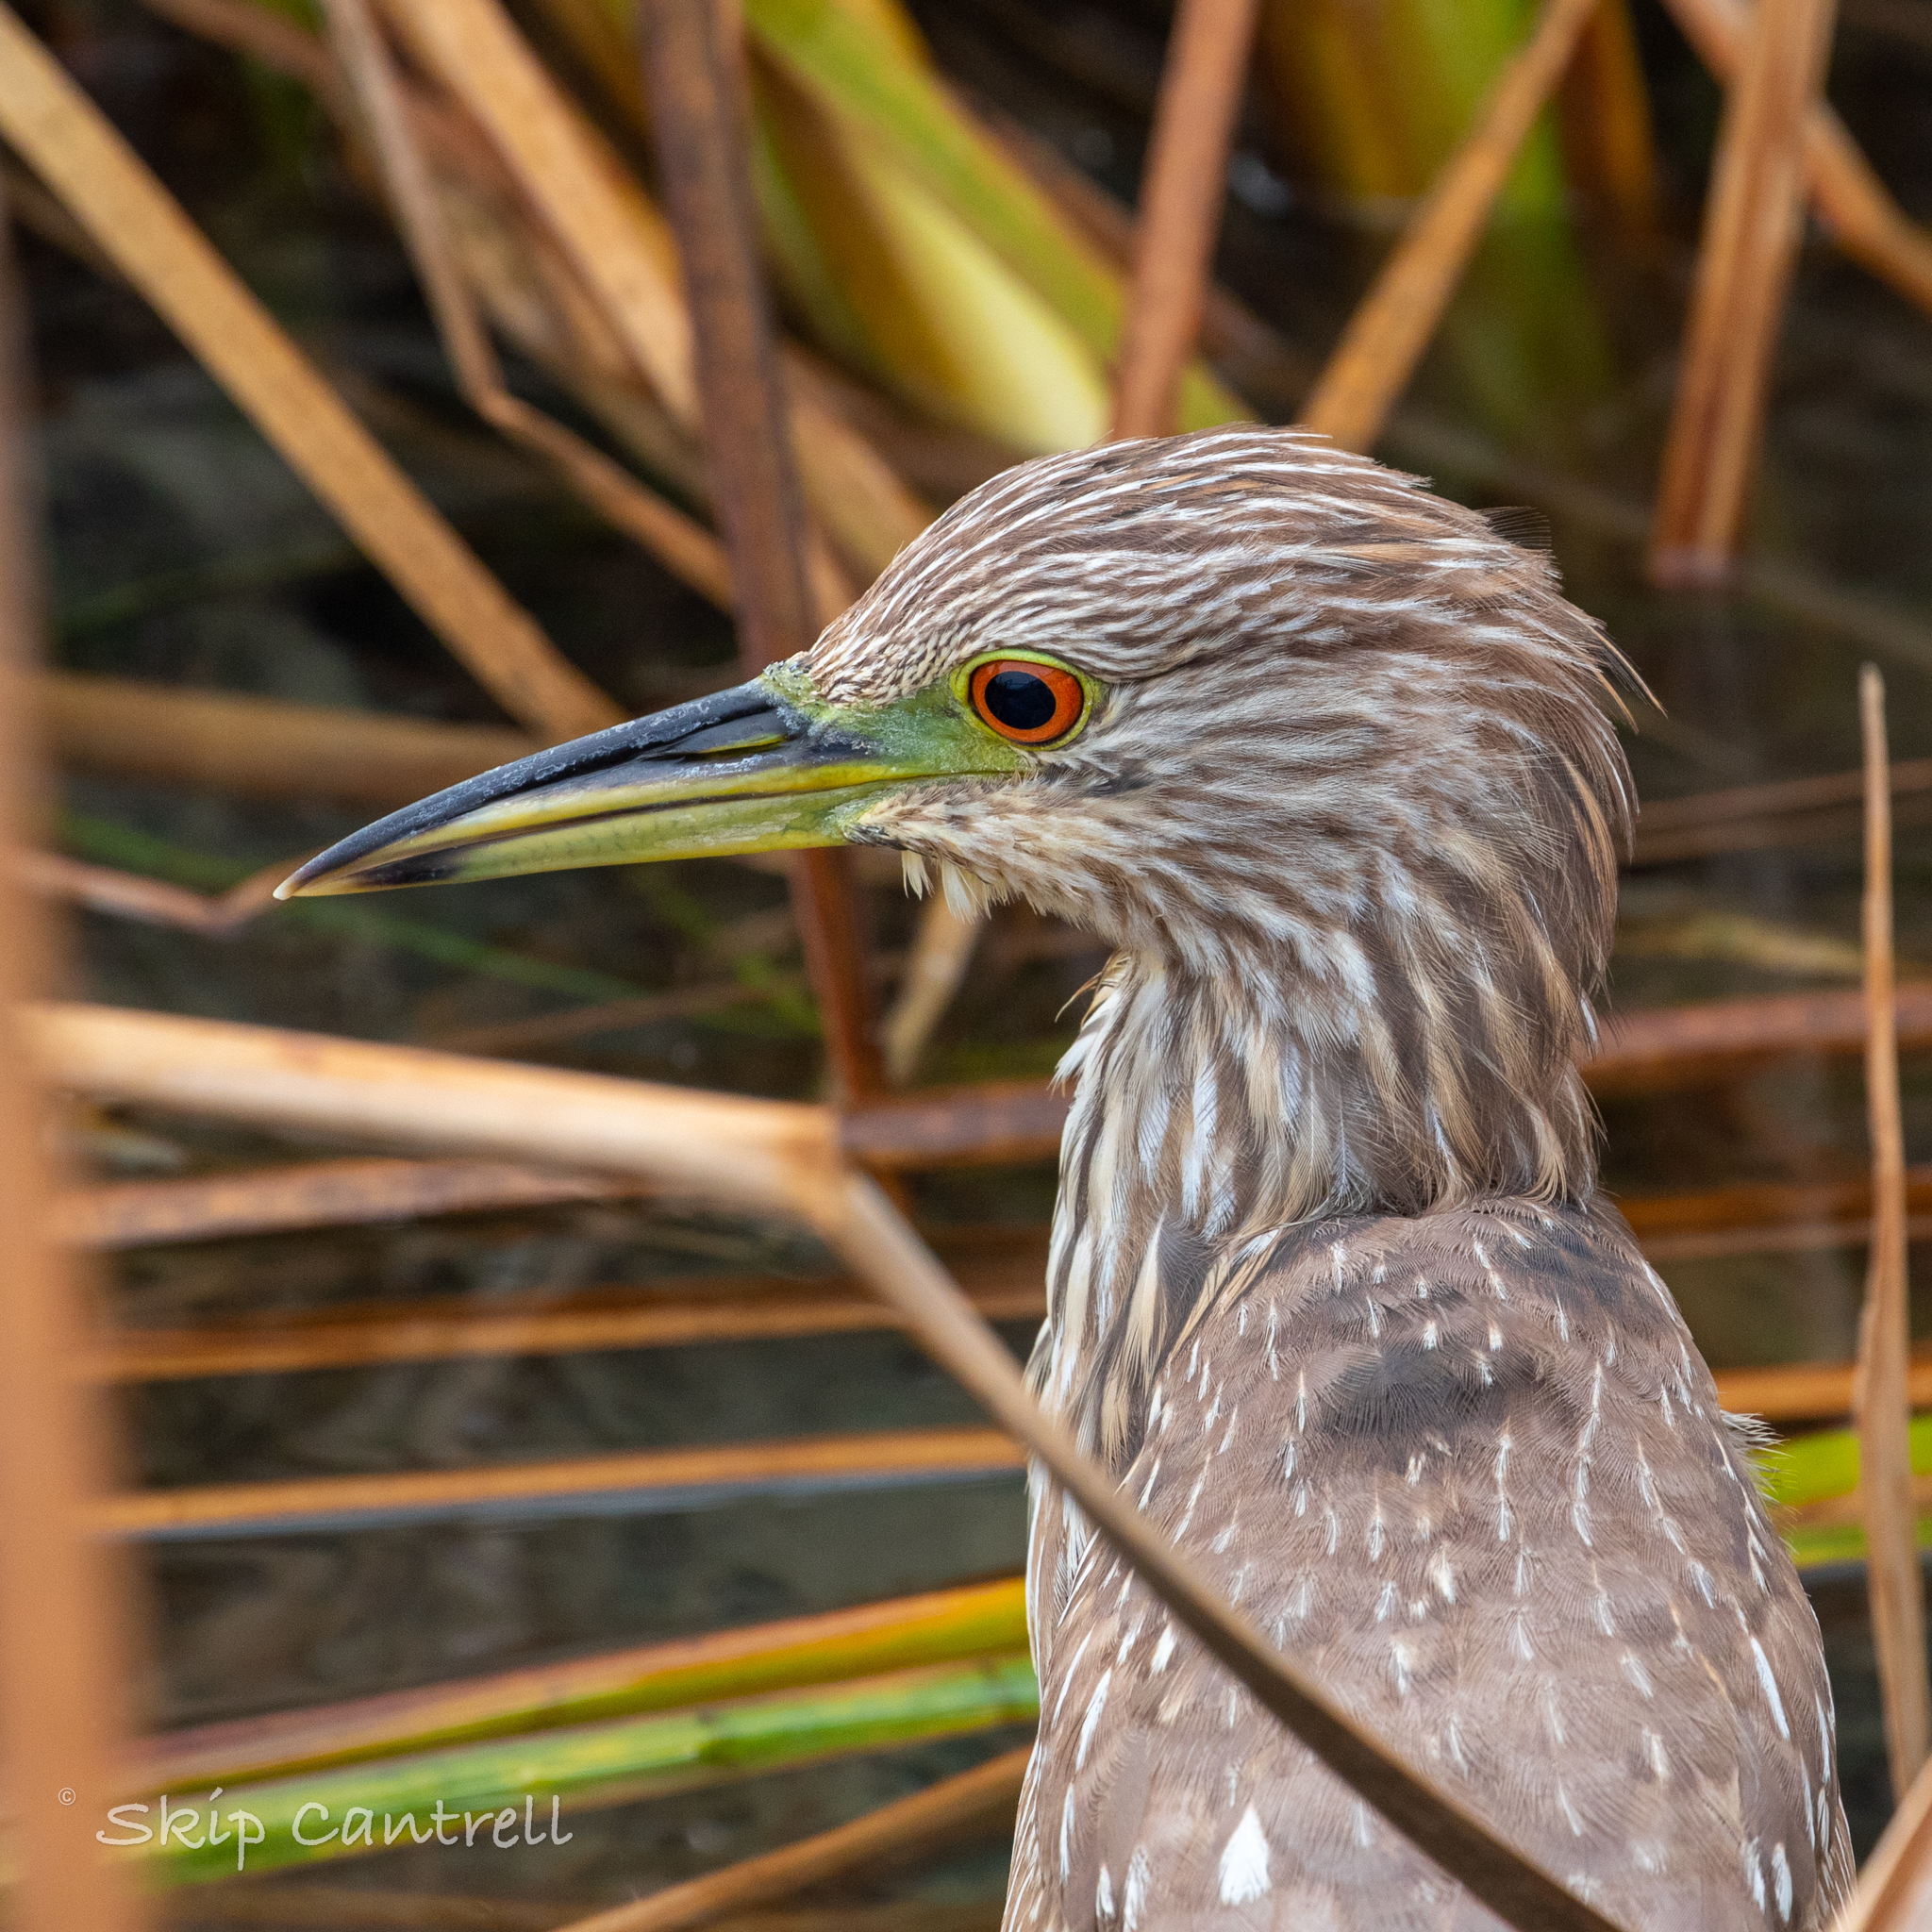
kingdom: Animalia
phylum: Chordata
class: Aves
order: Pelecaniformes
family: Ardeidae
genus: Nycticorax
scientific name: Nycticorax nycticorax
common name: Black-crowned night heron
